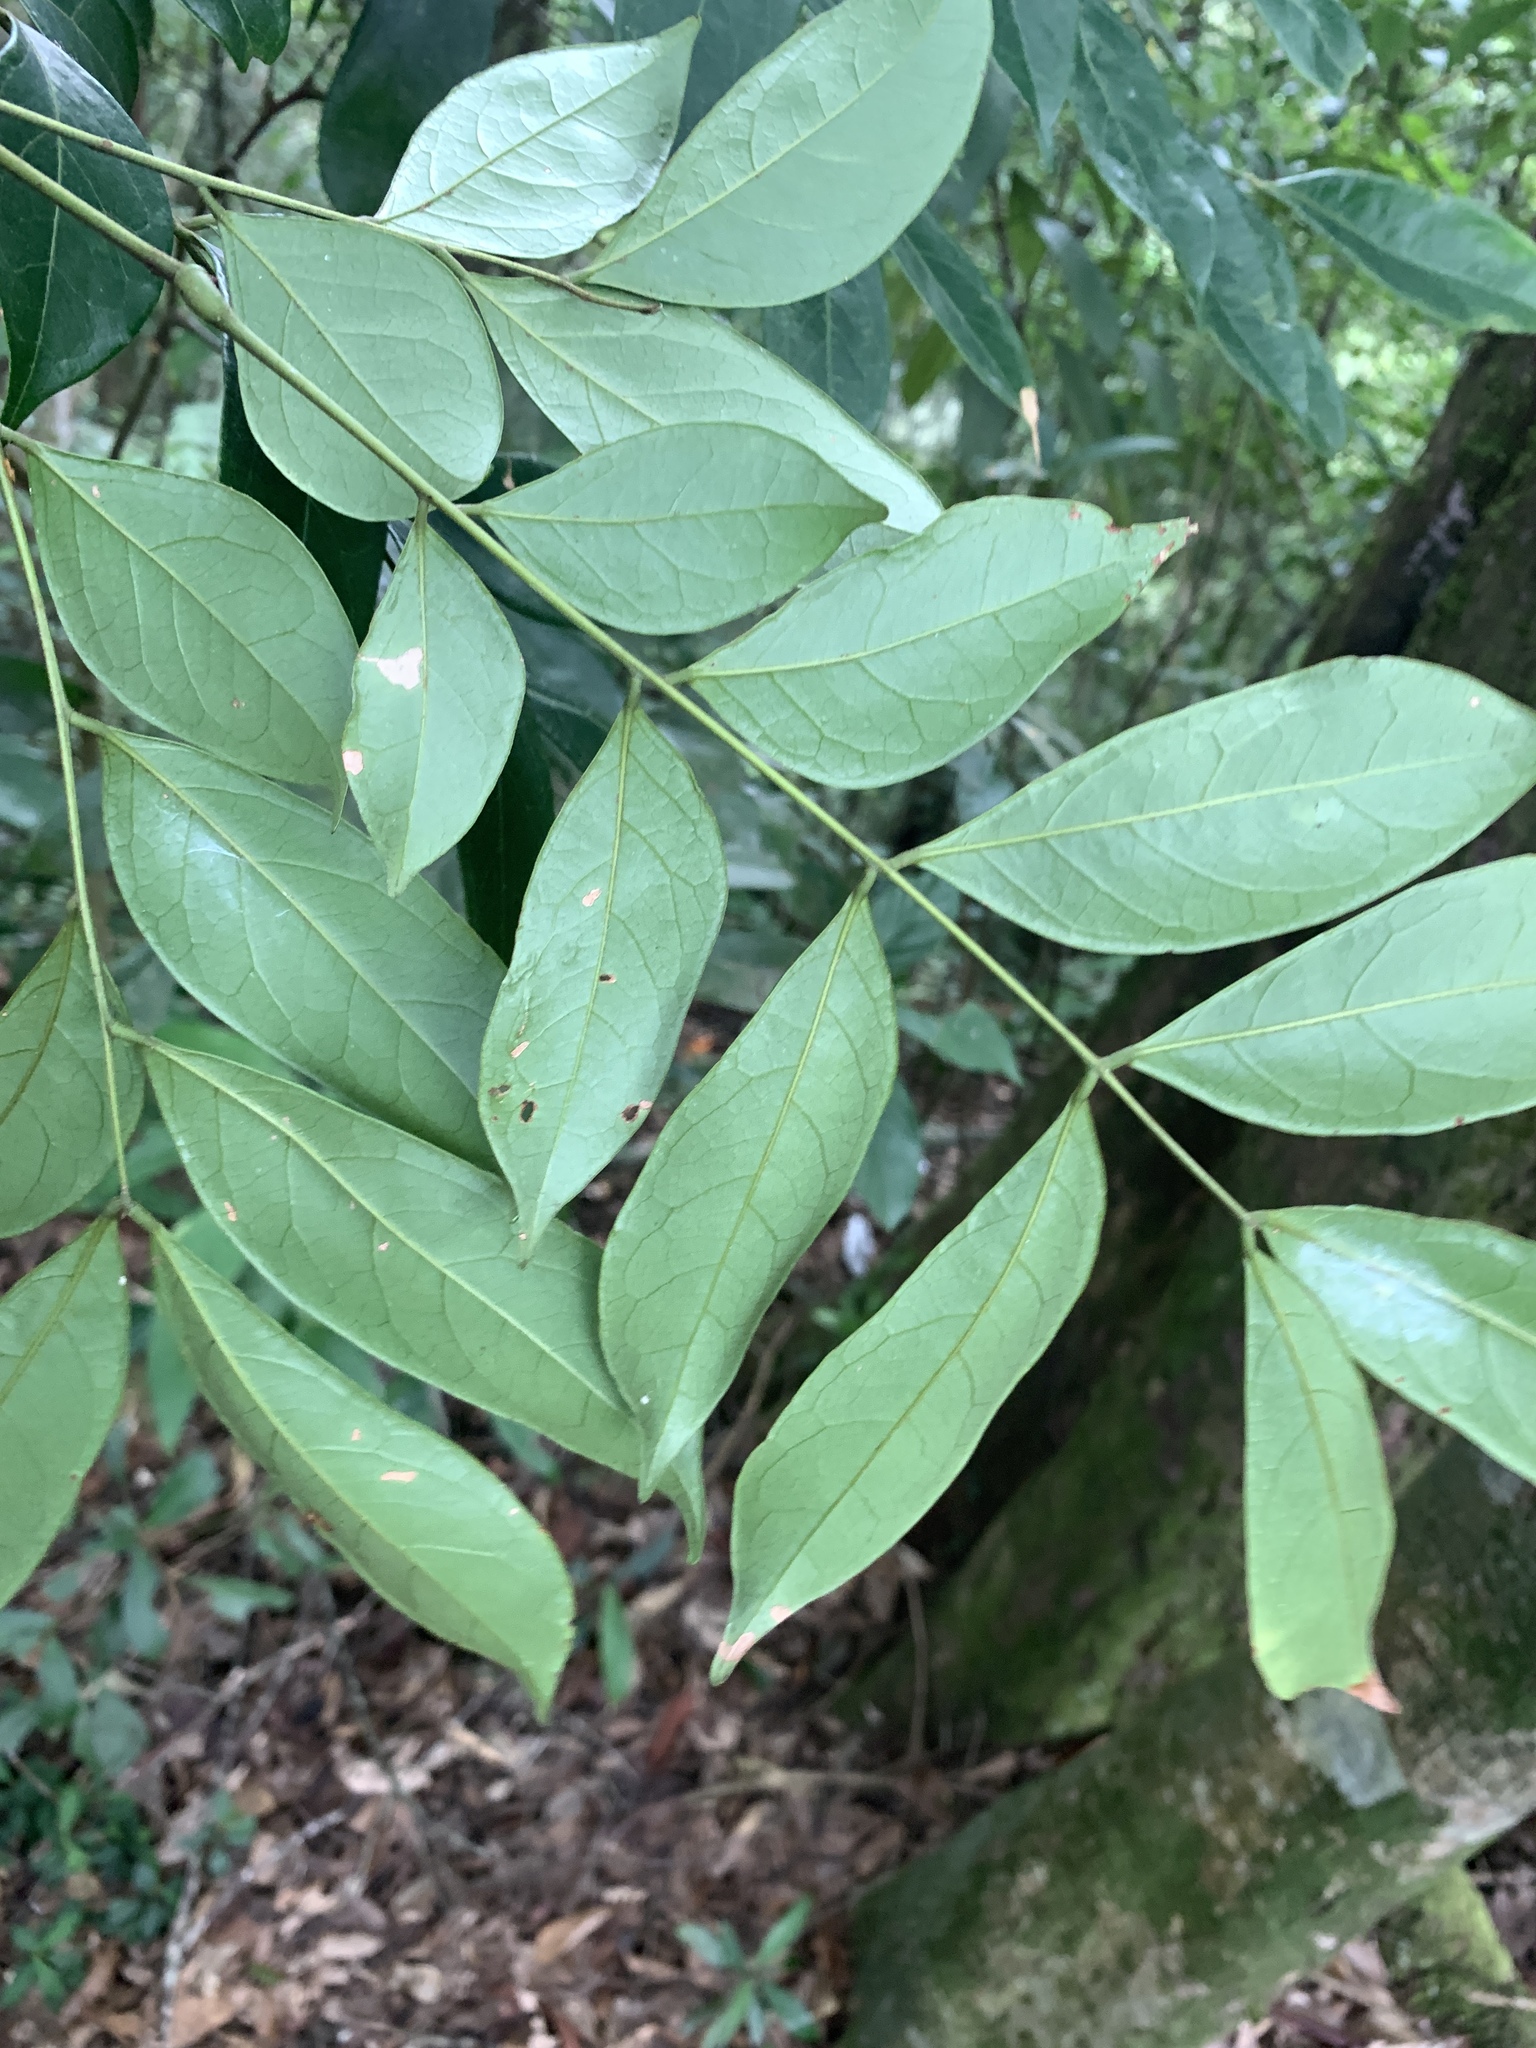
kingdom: Plantae
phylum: Tracheophyta
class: Magnoliopsida
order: Fabales
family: Fabaceae
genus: Archidendron
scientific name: Archidendron lucidum
